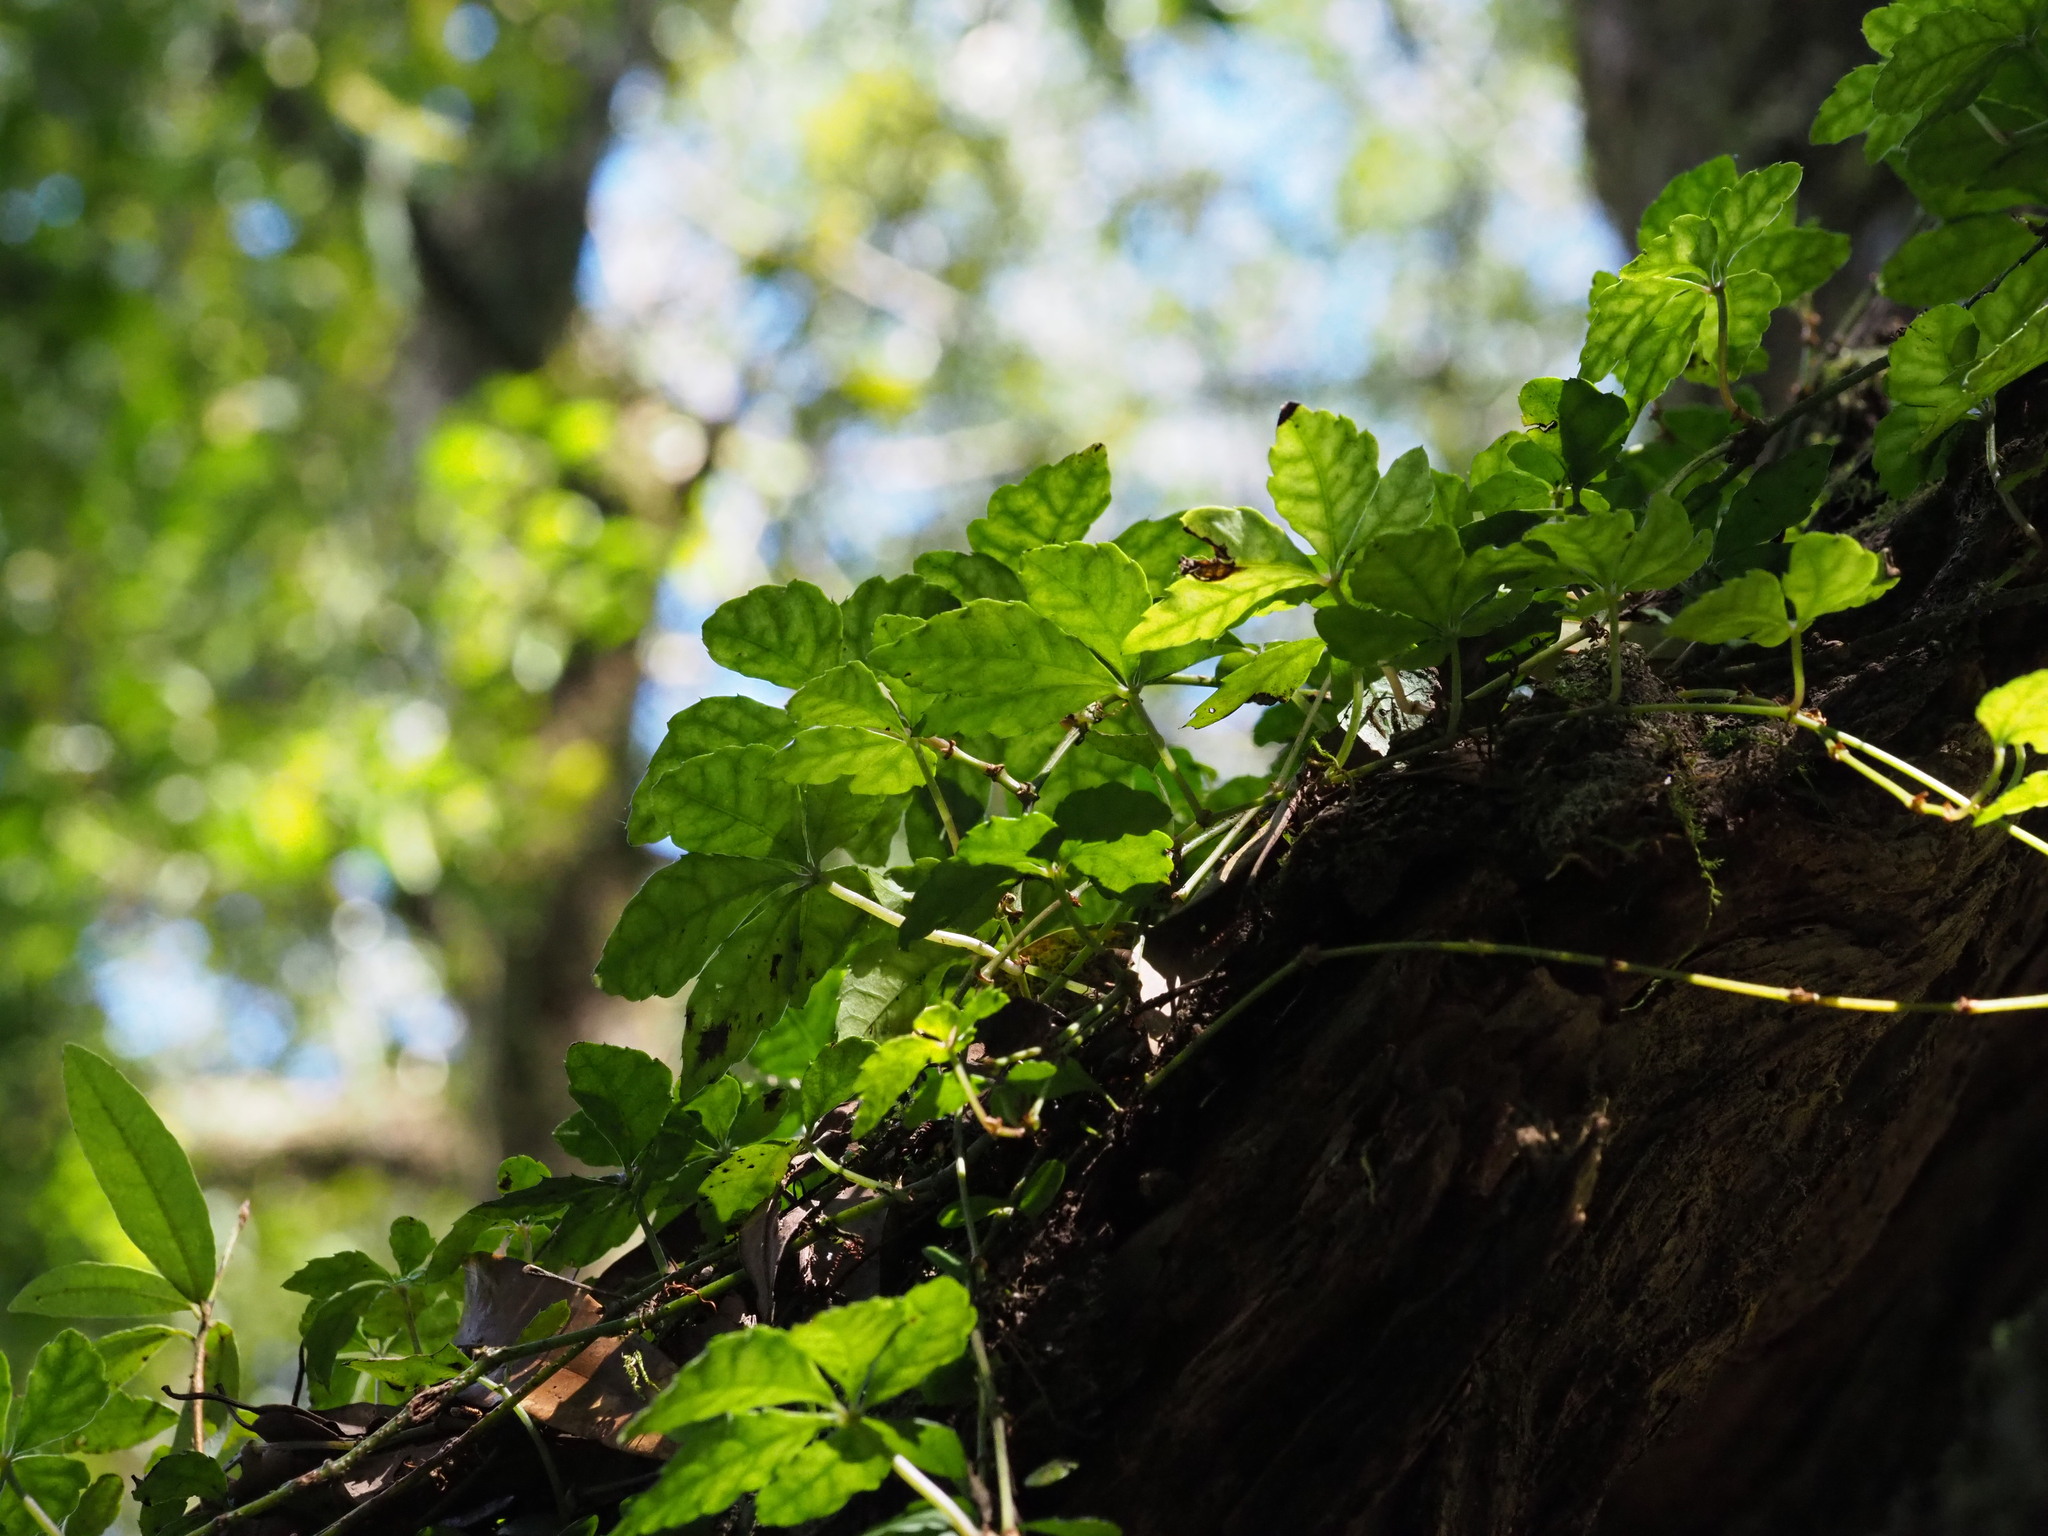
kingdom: Plantae
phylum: Tracheophyta
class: Magnoliopsida
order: Vitales
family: Vitaceae
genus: Tetrastigma
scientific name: Tetrastigma obtectum
